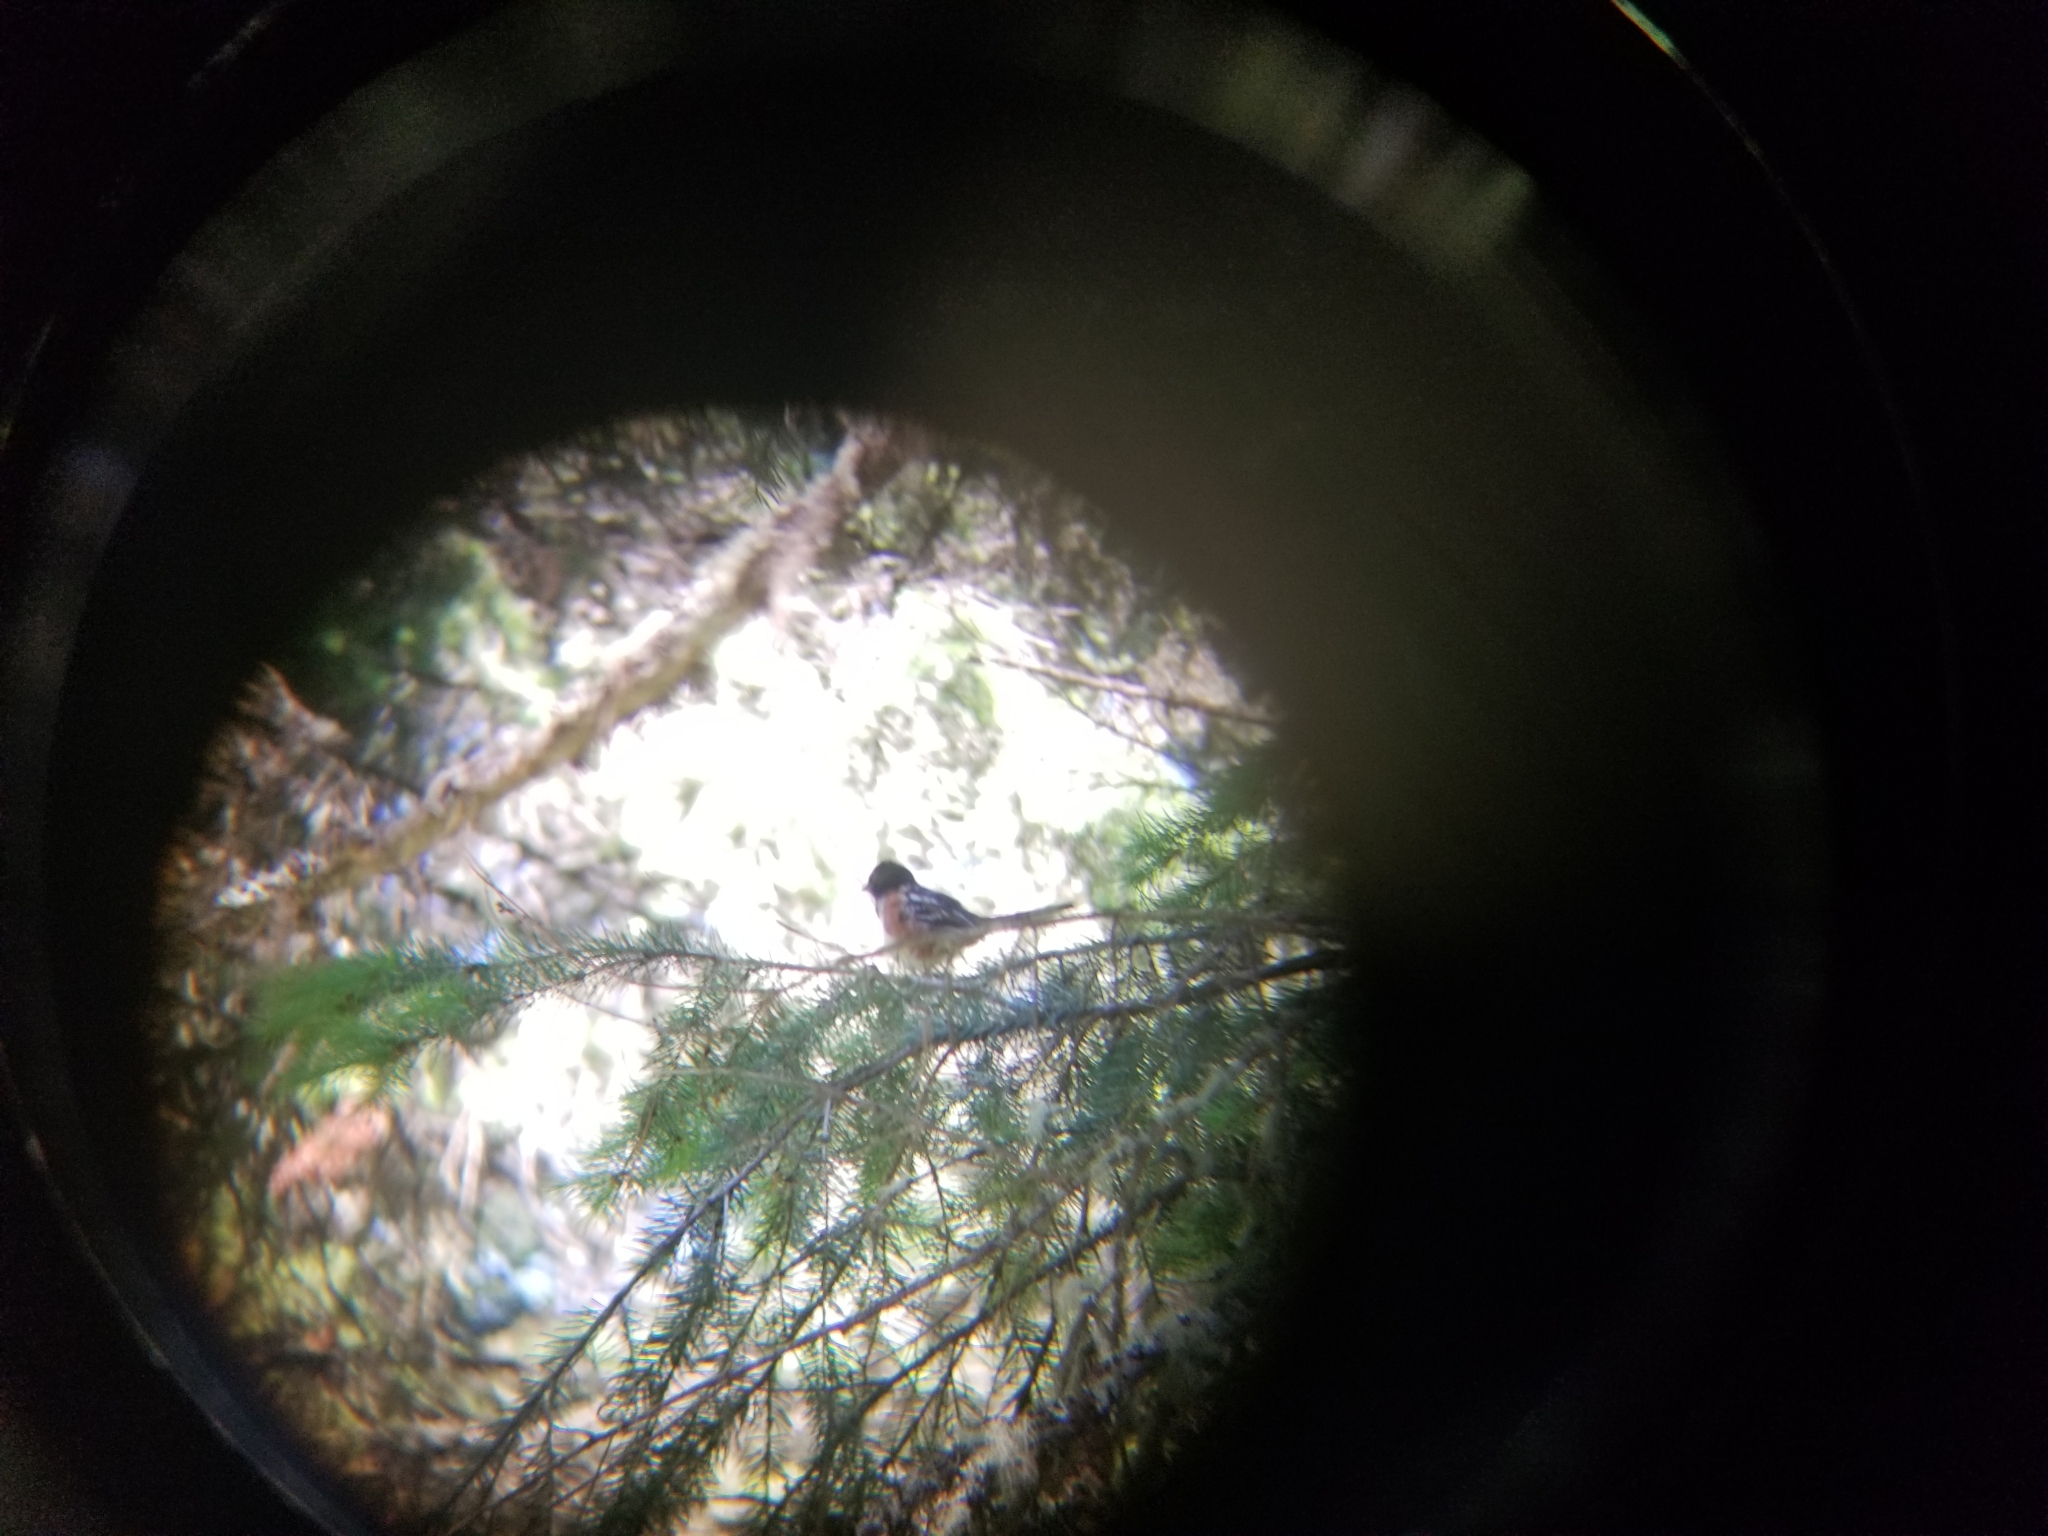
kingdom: Animalia
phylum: Chordata
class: Aves
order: Passeriformes
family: Passerellidae
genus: Pipilo
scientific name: Pipilo maculatus
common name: Spotted towhee
